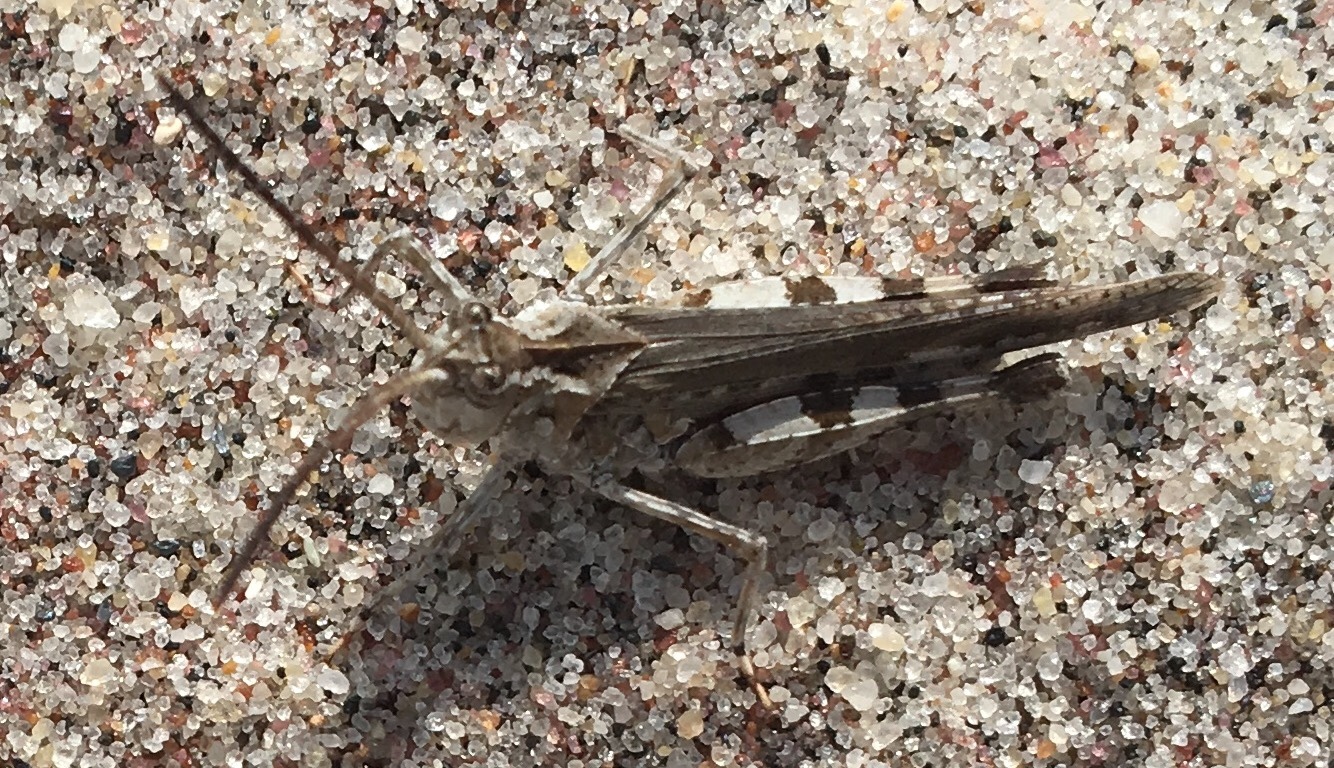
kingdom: Animalia
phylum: Arthropoda
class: Insecta
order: Orthoptera
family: Acrididae
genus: Psinidia
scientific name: Psinidia fenestralis
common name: Long-horned locust
